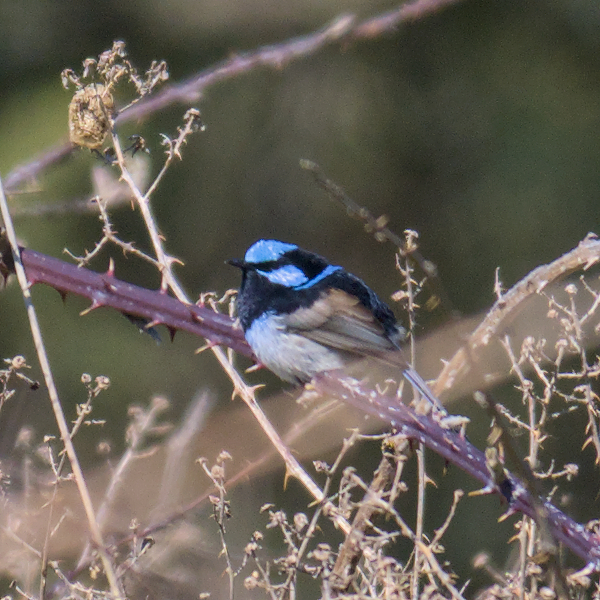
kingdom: Animalia
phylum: Chordata
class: Aves
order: Passeriformes
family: Maluridae
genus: Malurus
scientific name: Malurus cyaneus
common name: Superb fairywren
